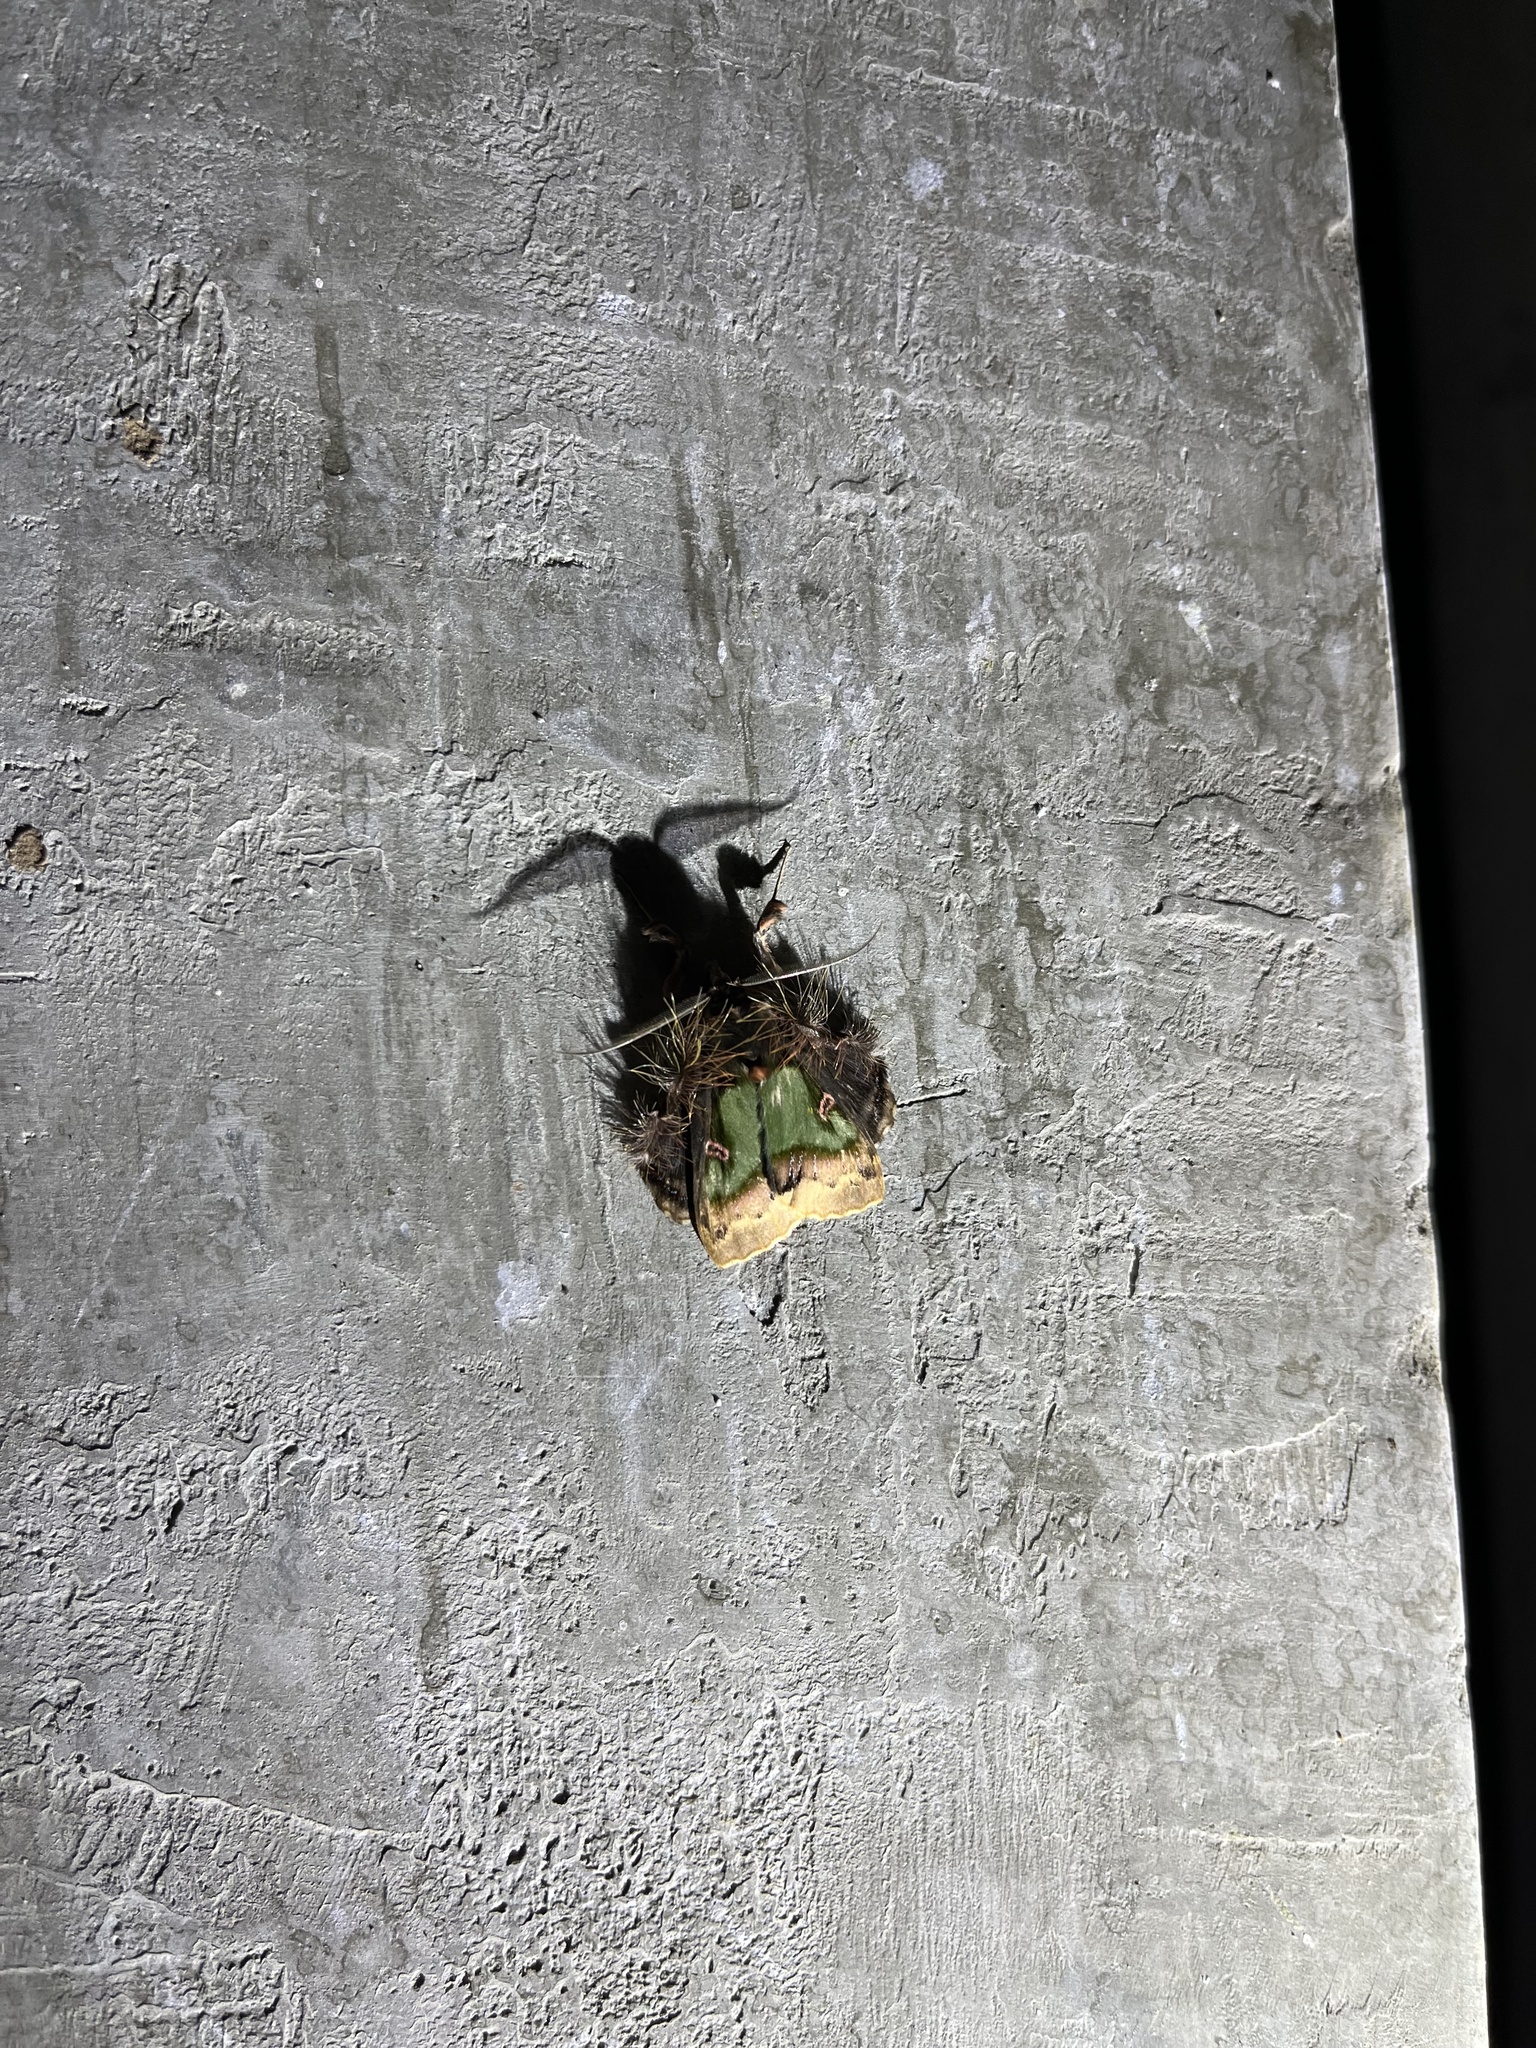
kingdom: Animalia
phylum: Arthropoda
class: Insecta
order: Lepidoptera
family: Erebidae
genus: Ceroctena
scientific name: Ceroctena amynta
